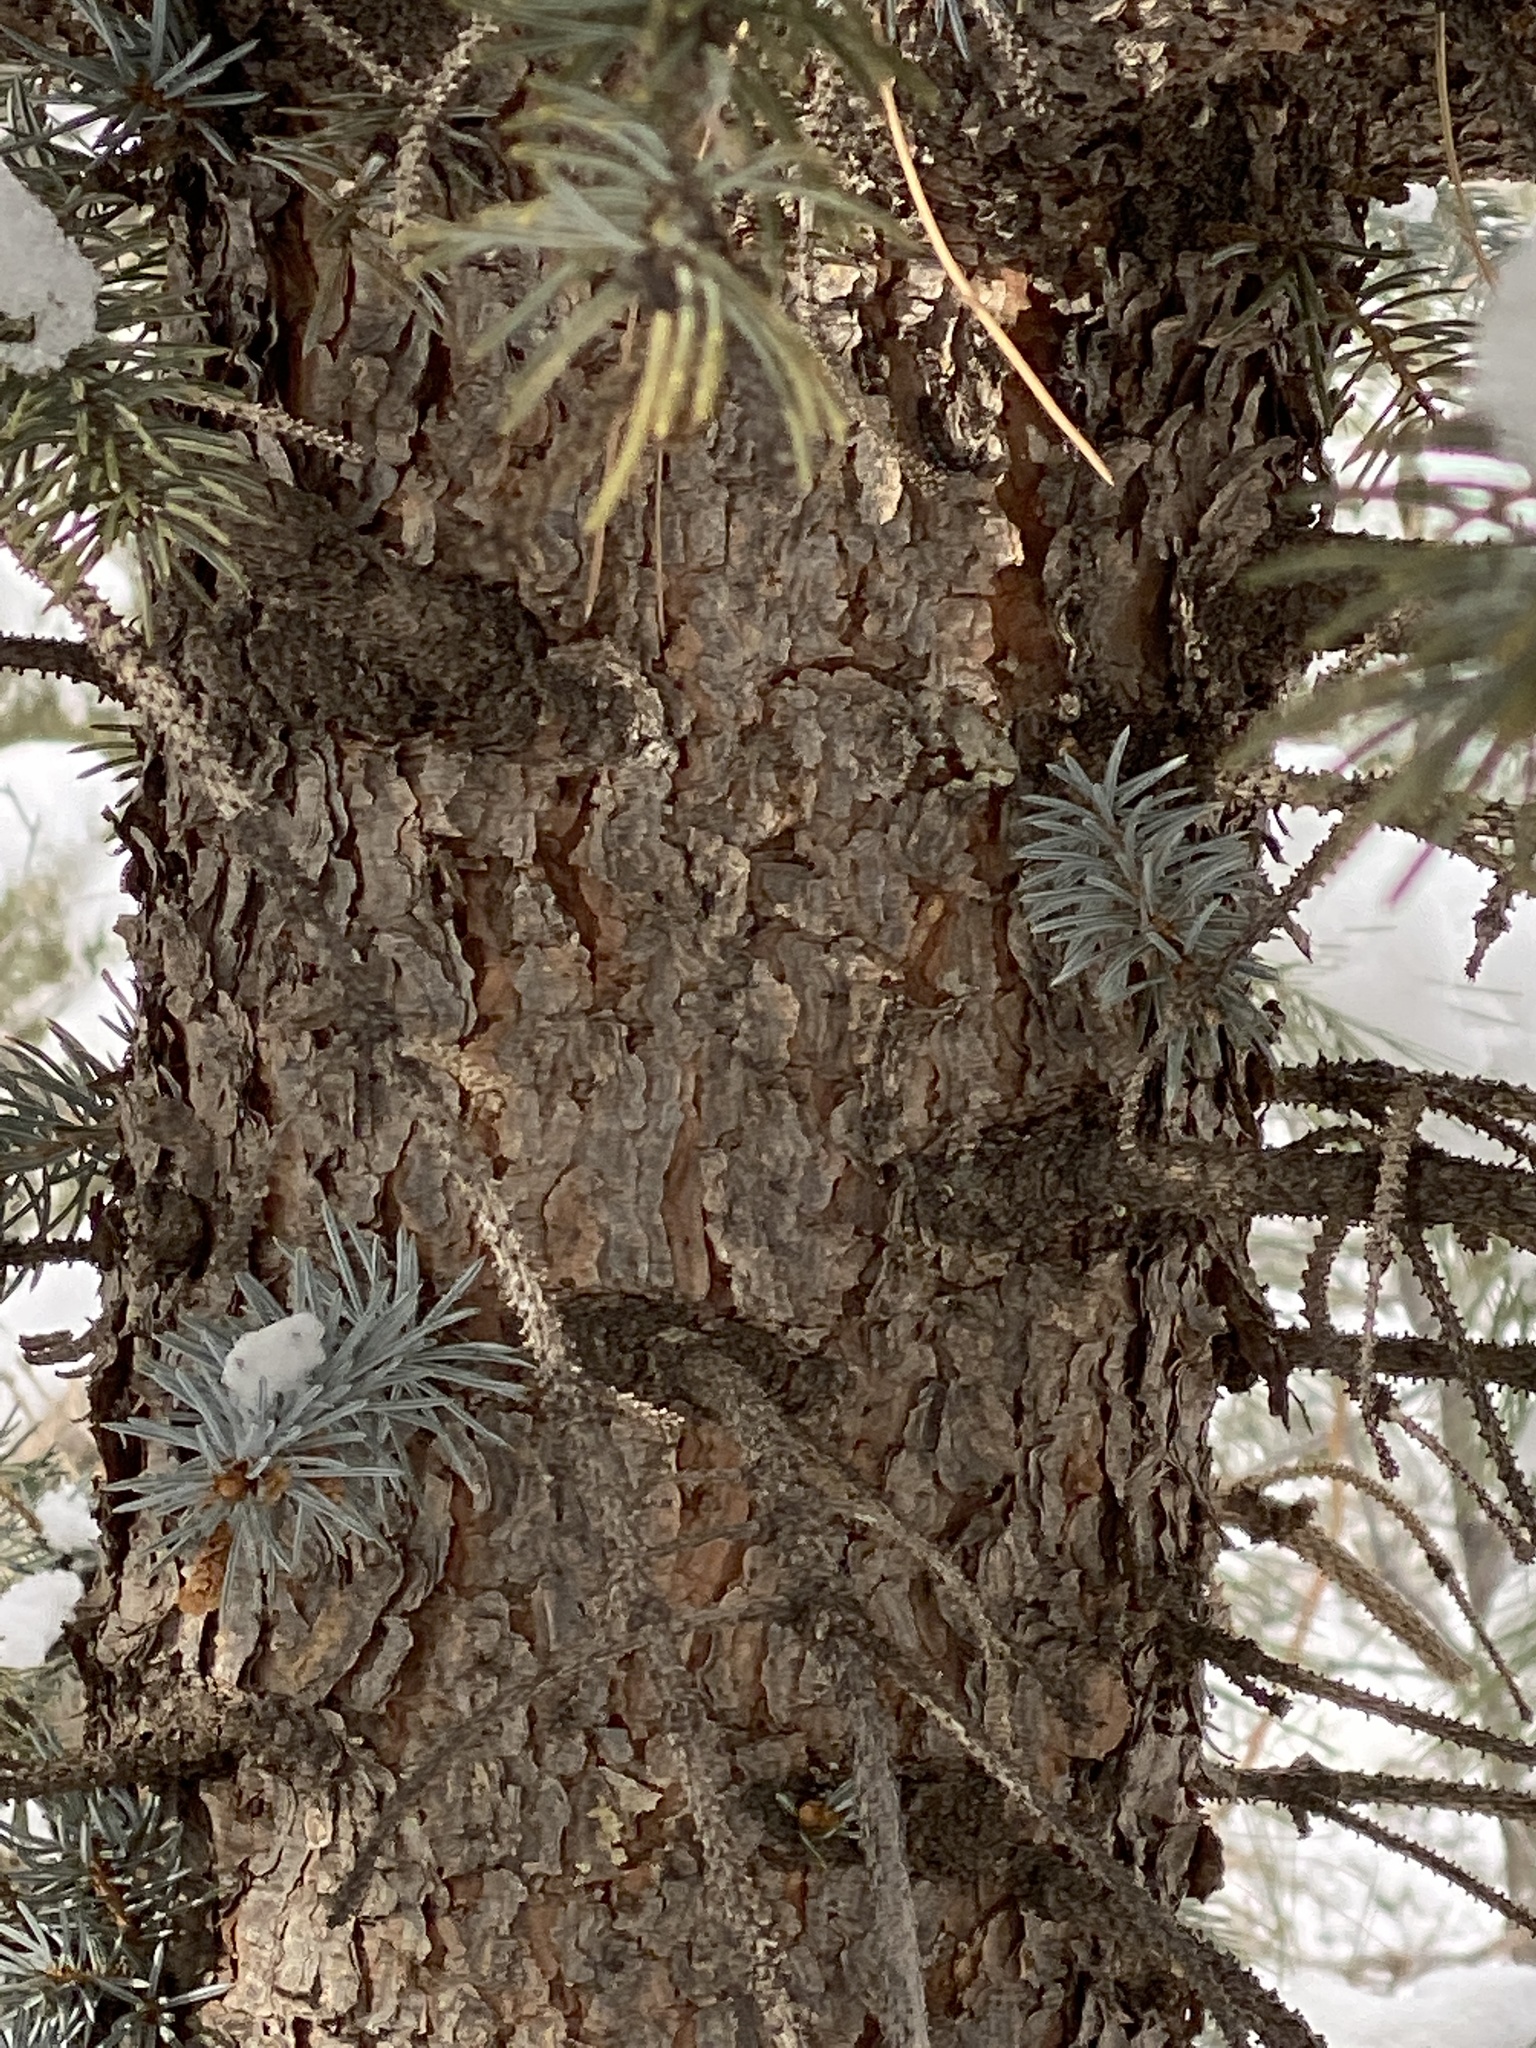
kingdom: Plantae
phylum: Tracheophyta
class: Pinopsida
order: Pinales
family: Pinaceae
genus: Picea
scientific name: Picea pungens
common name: Colorado spruce
